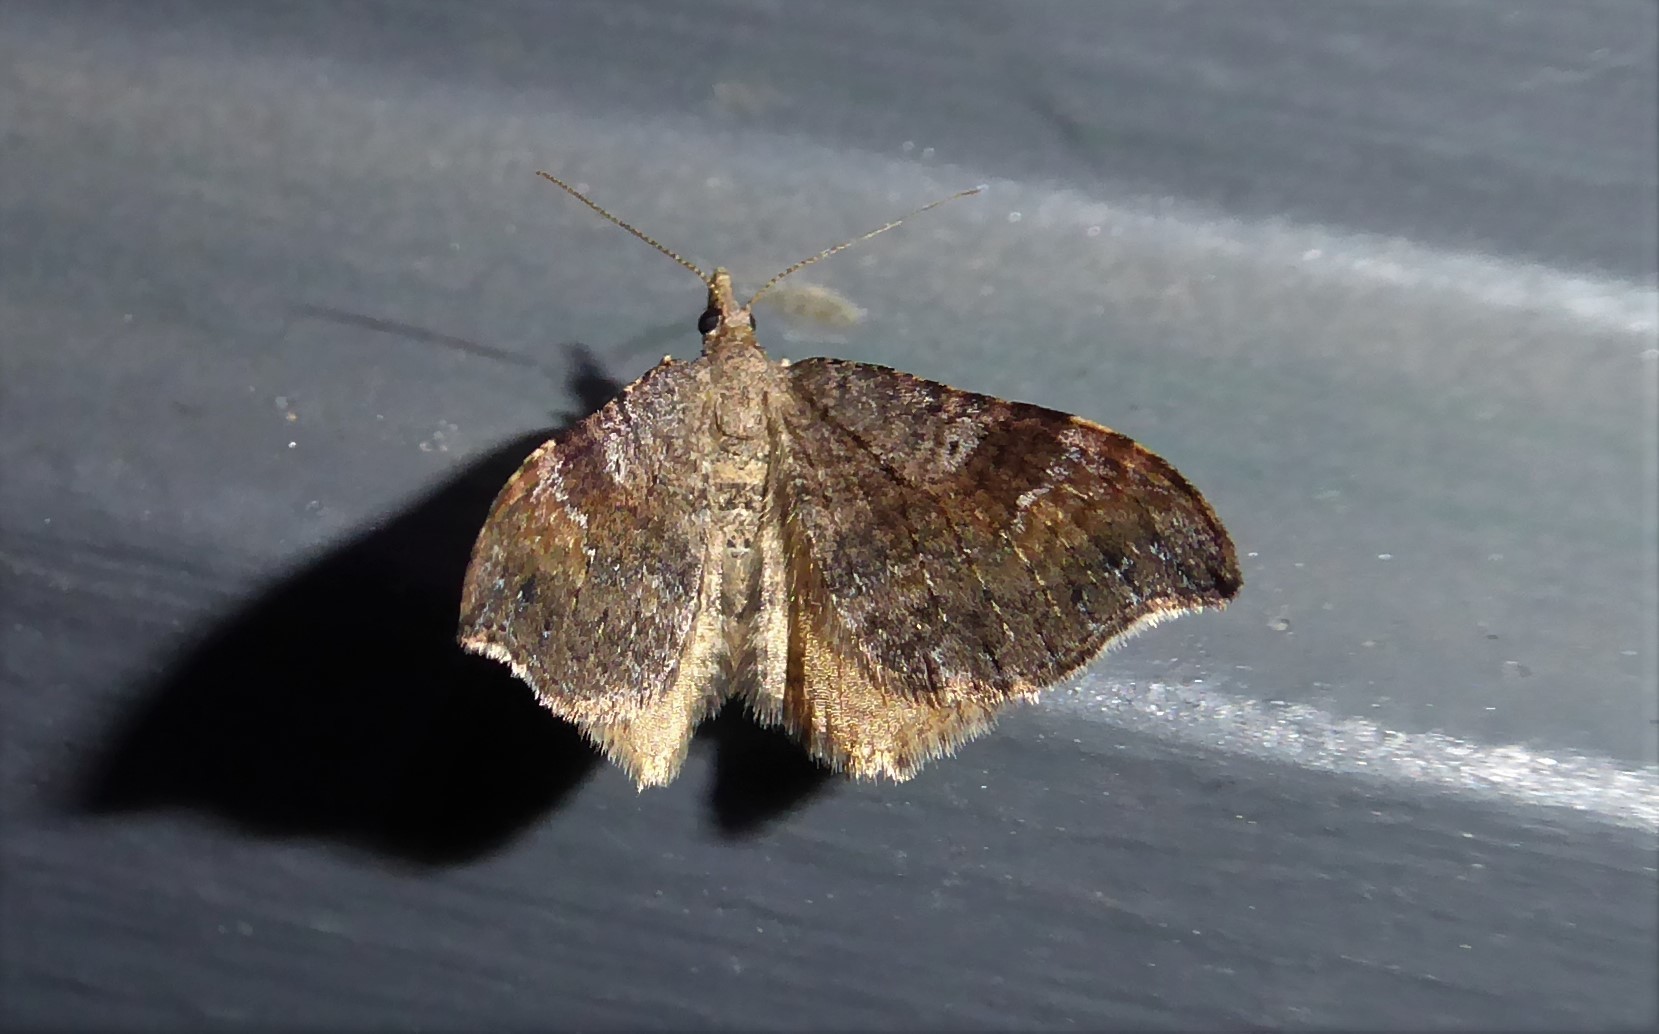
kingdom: Animalia
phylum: Arthropoda
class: Insecta
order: Lepidoptera
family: Geometridae
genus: Homodotis
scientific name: Homodotis megaspilata
